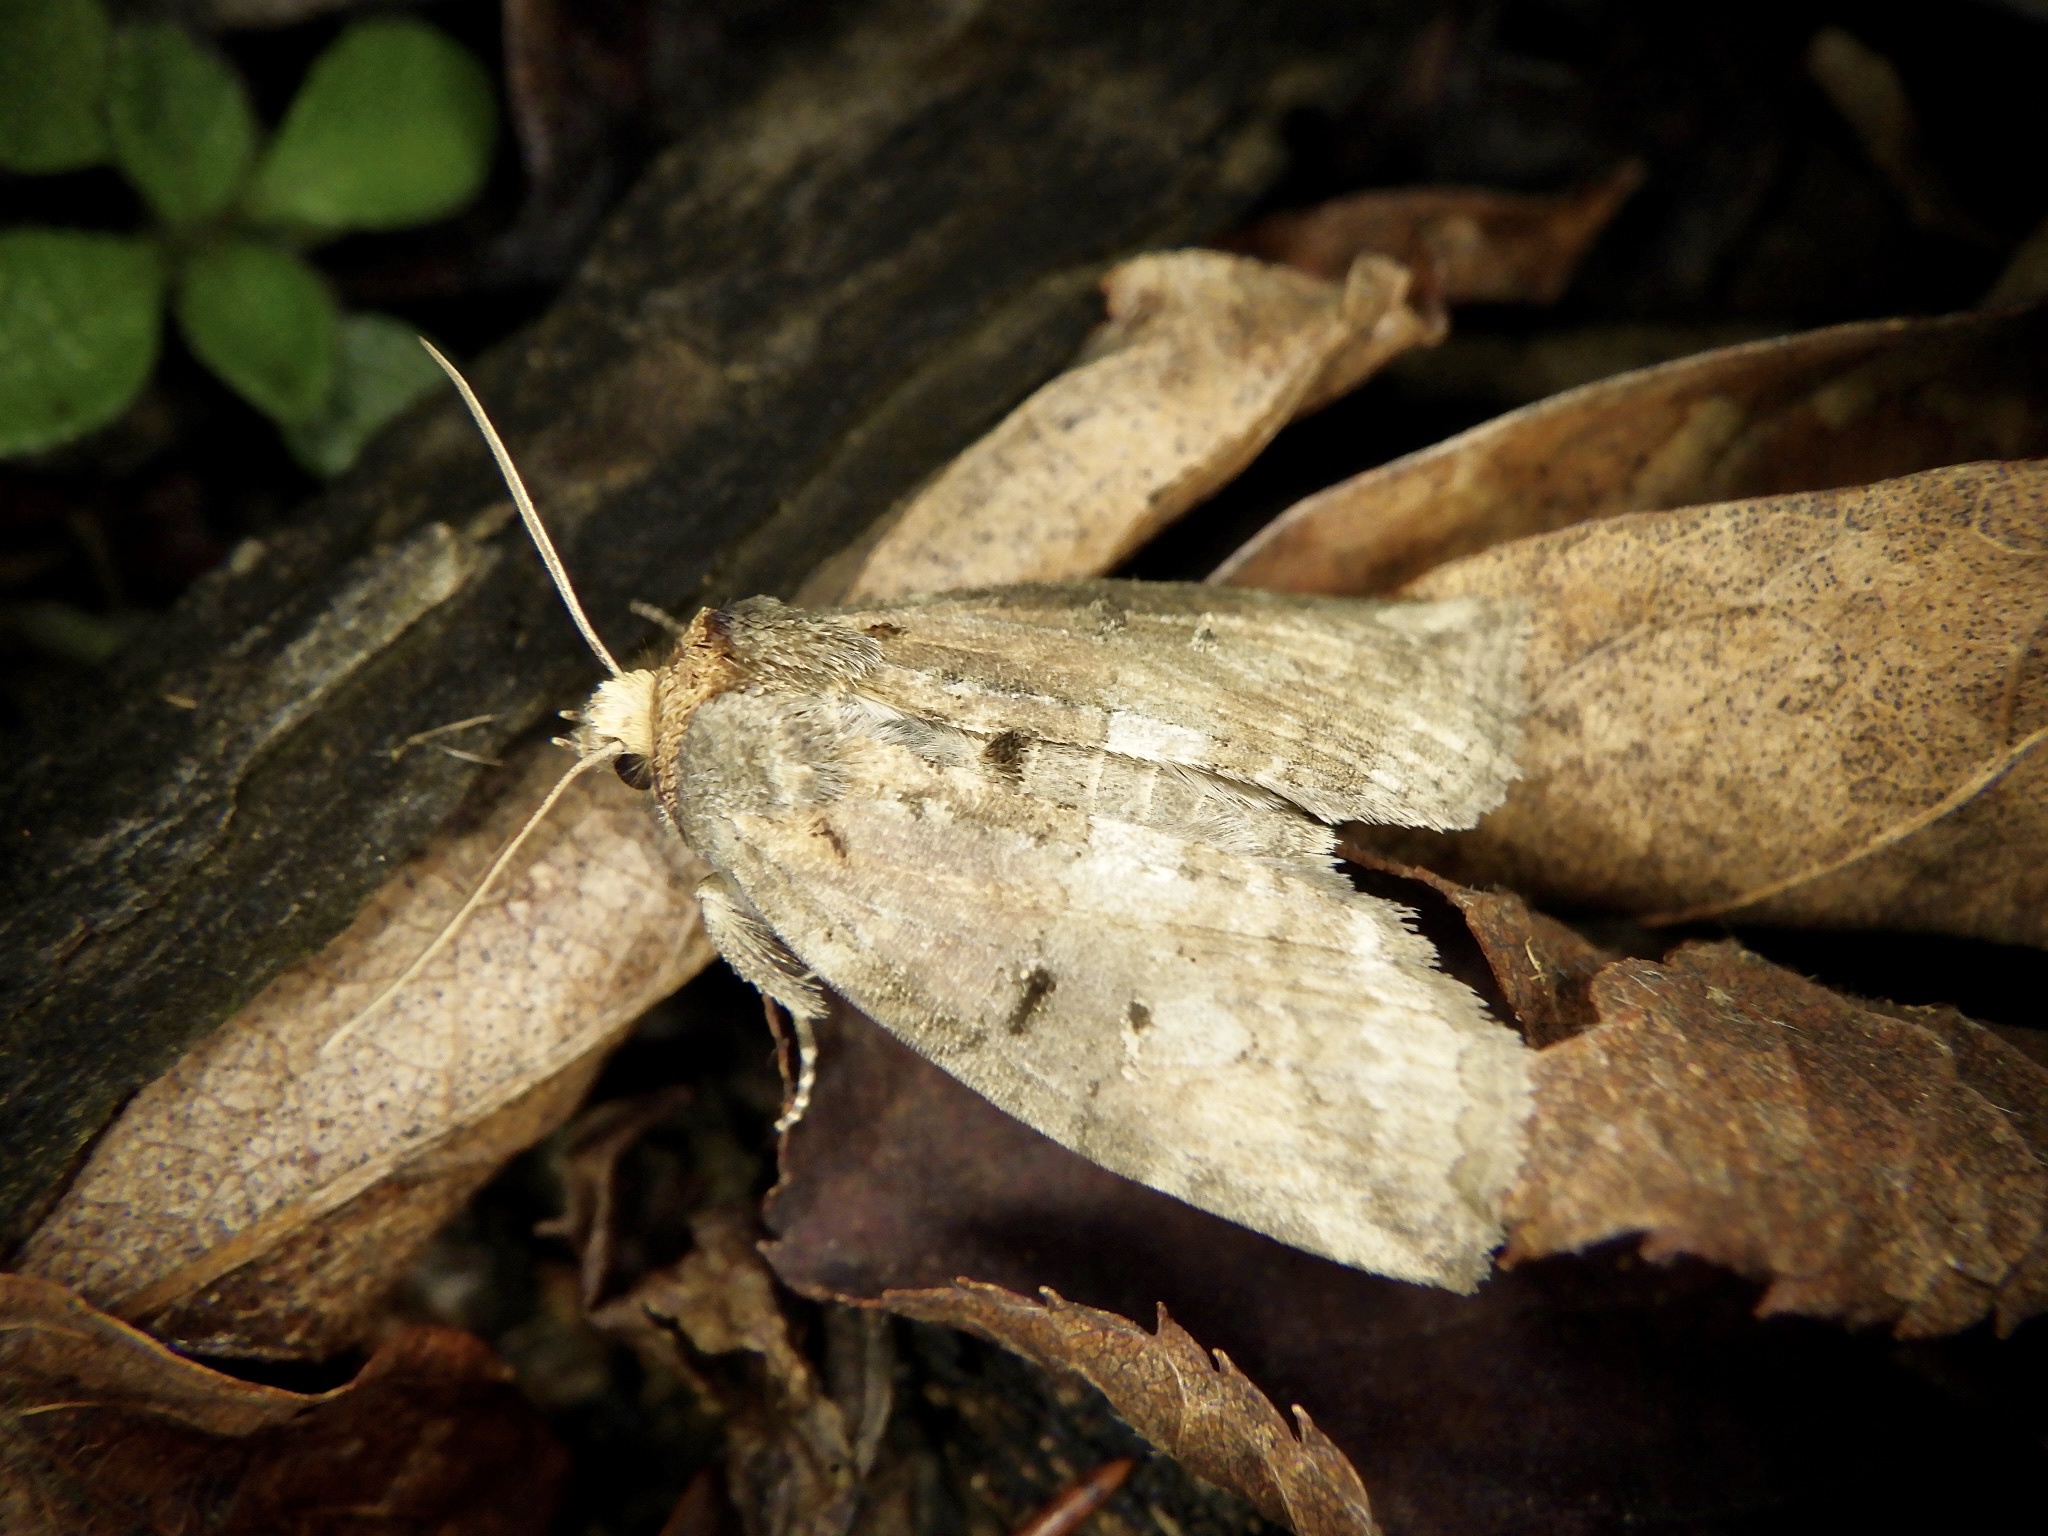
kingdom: Animalia
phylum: Arthropoda
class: Insecta
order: Lepidoptera
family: Drepanidae
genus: Epipsestis
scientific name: Epipsestis nikkoensis
